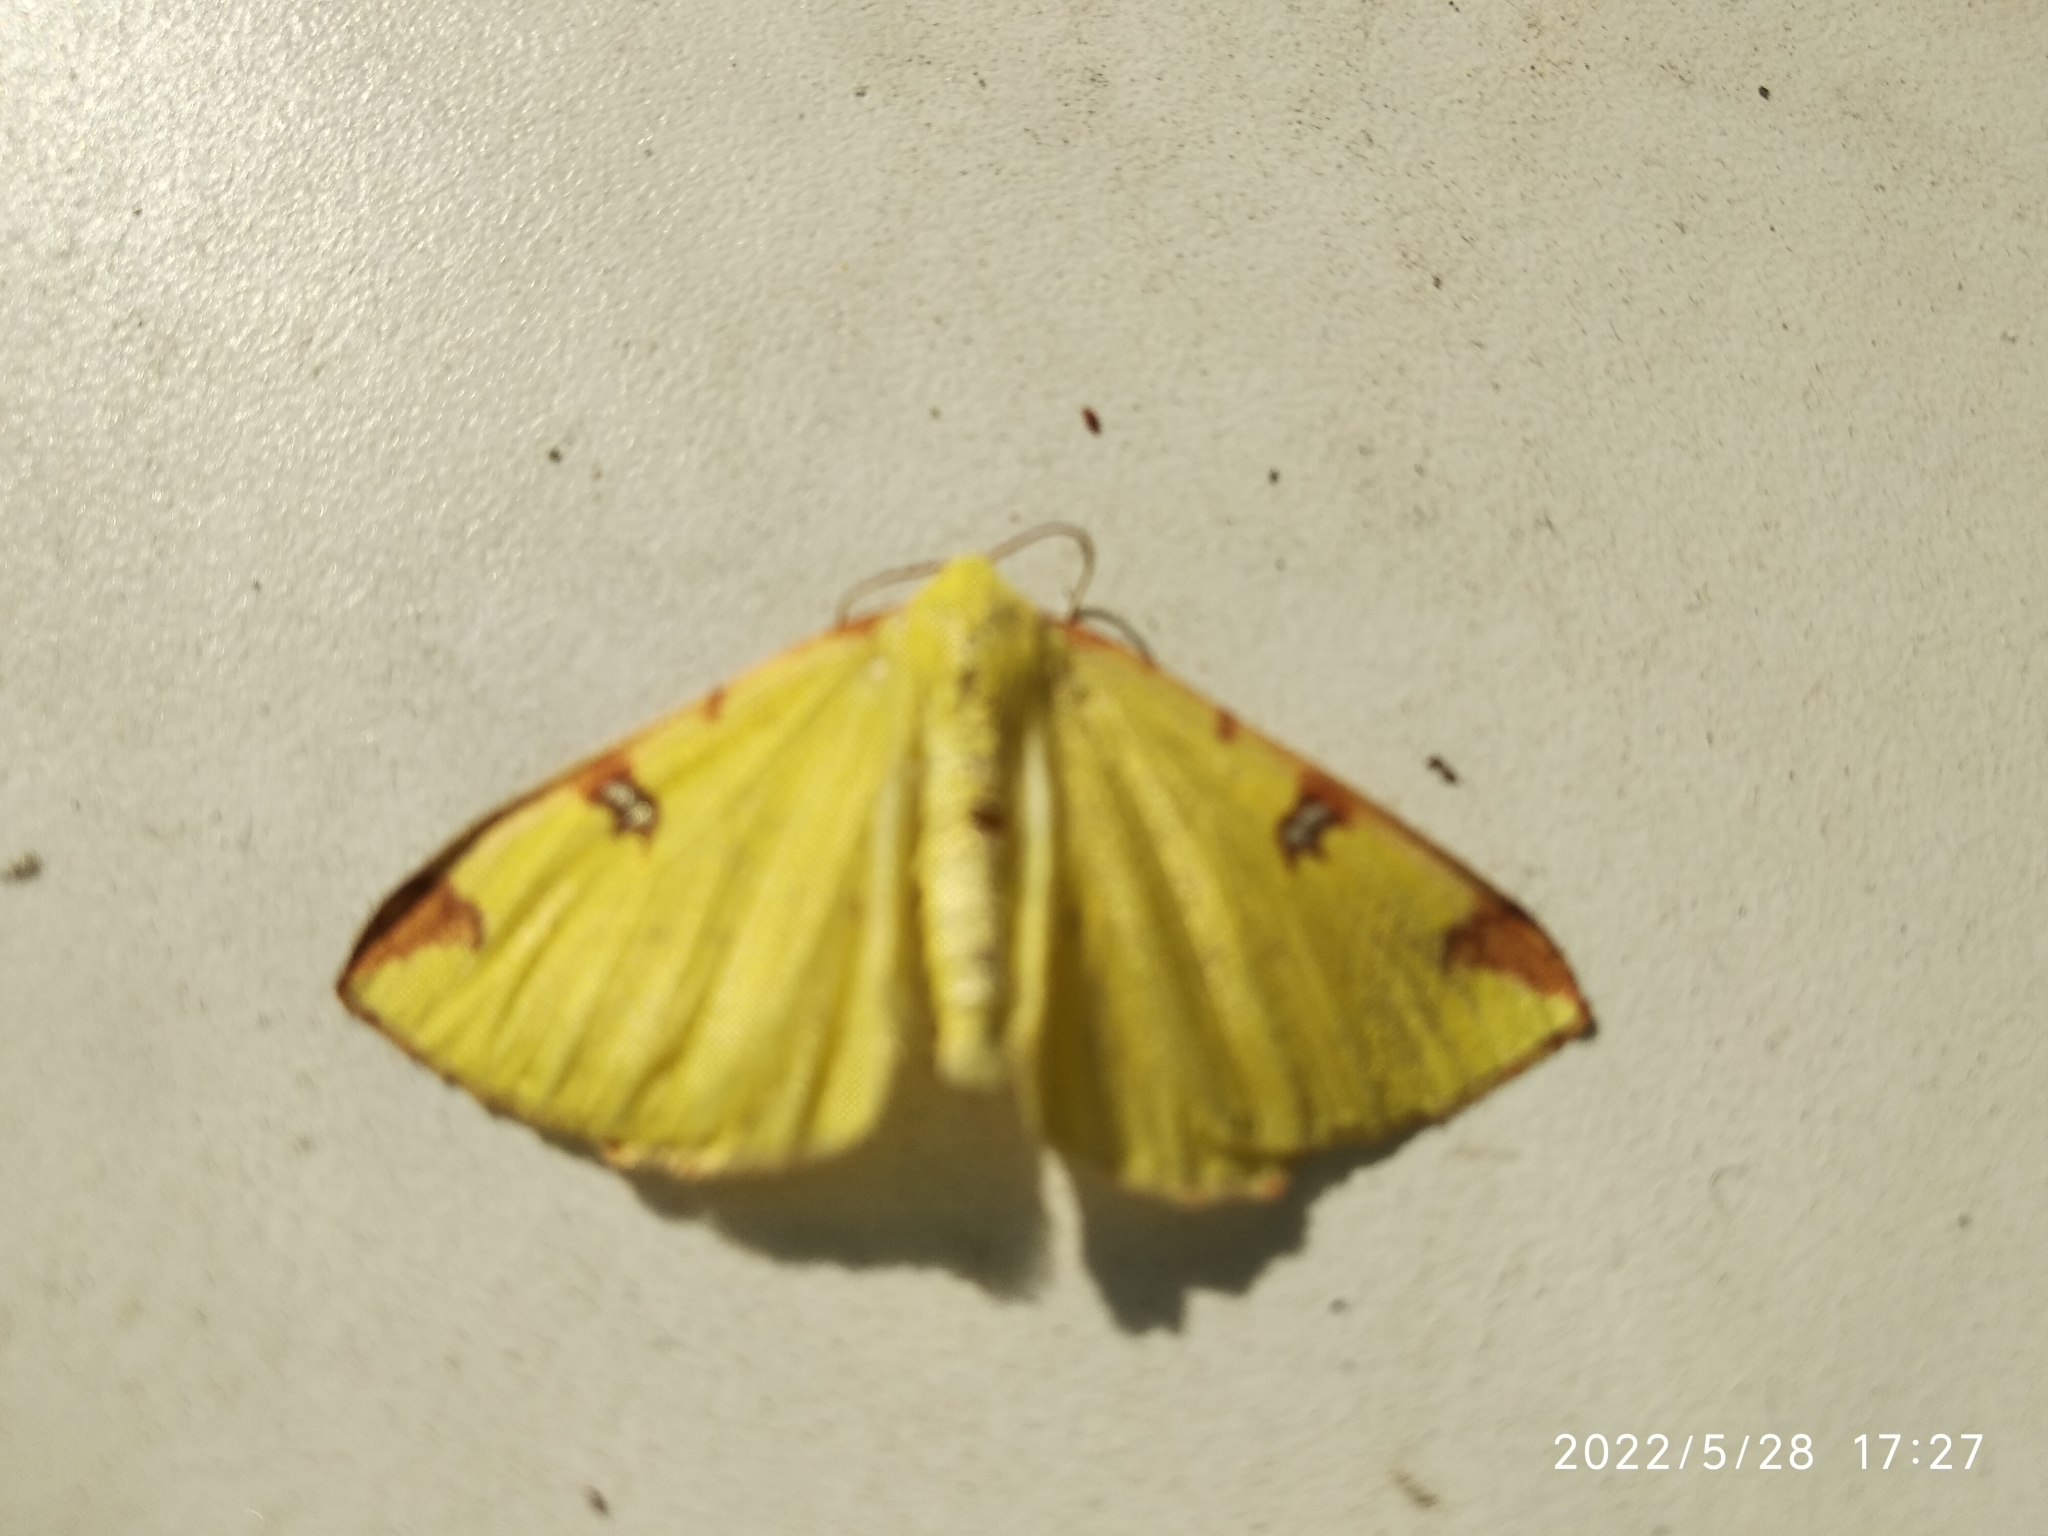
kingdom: Animalia
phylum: Arthropoda
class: Insecta
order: Lepidoptera
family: Geometridae
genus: Opisthograptis
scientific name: Opisthograptis luteolata
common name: Brimstone moth
